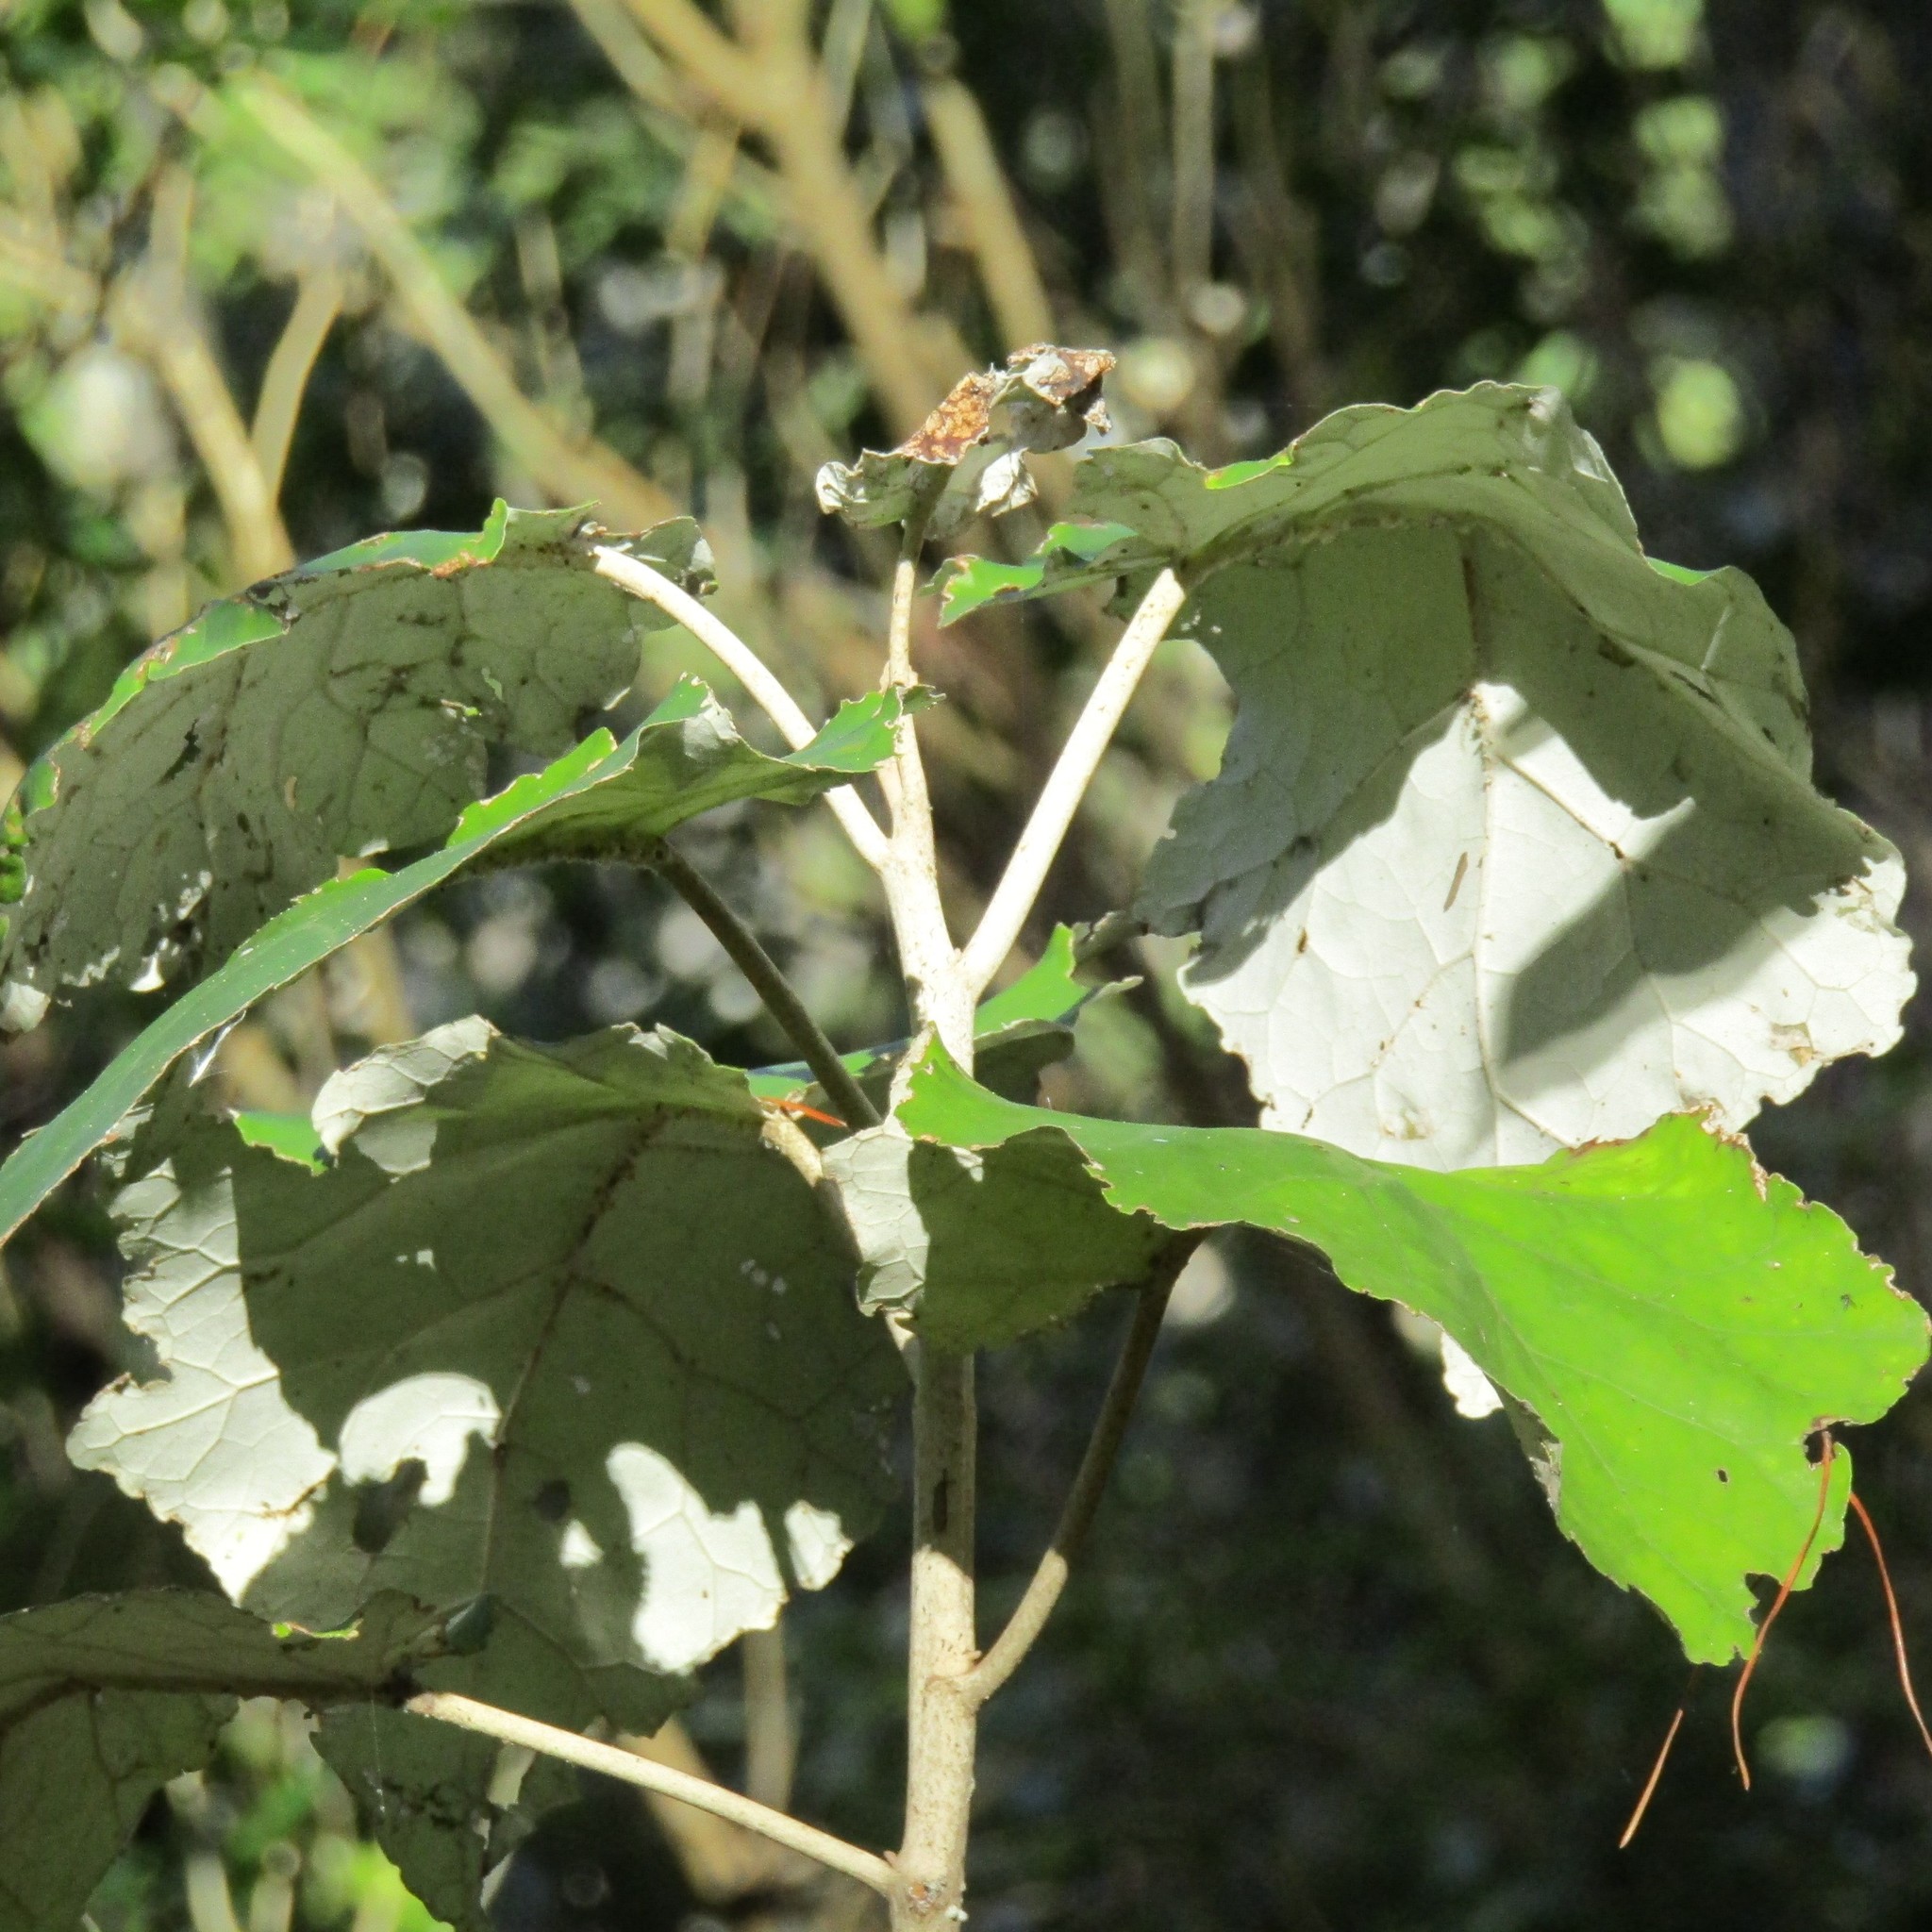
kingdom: Plantae
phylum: Tracheophyta
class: Magnoliopsida
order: Asterales
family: Asteraceae
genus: Brachyglottis
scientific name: Brachyglottis repanda
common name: Hedge ragwort
